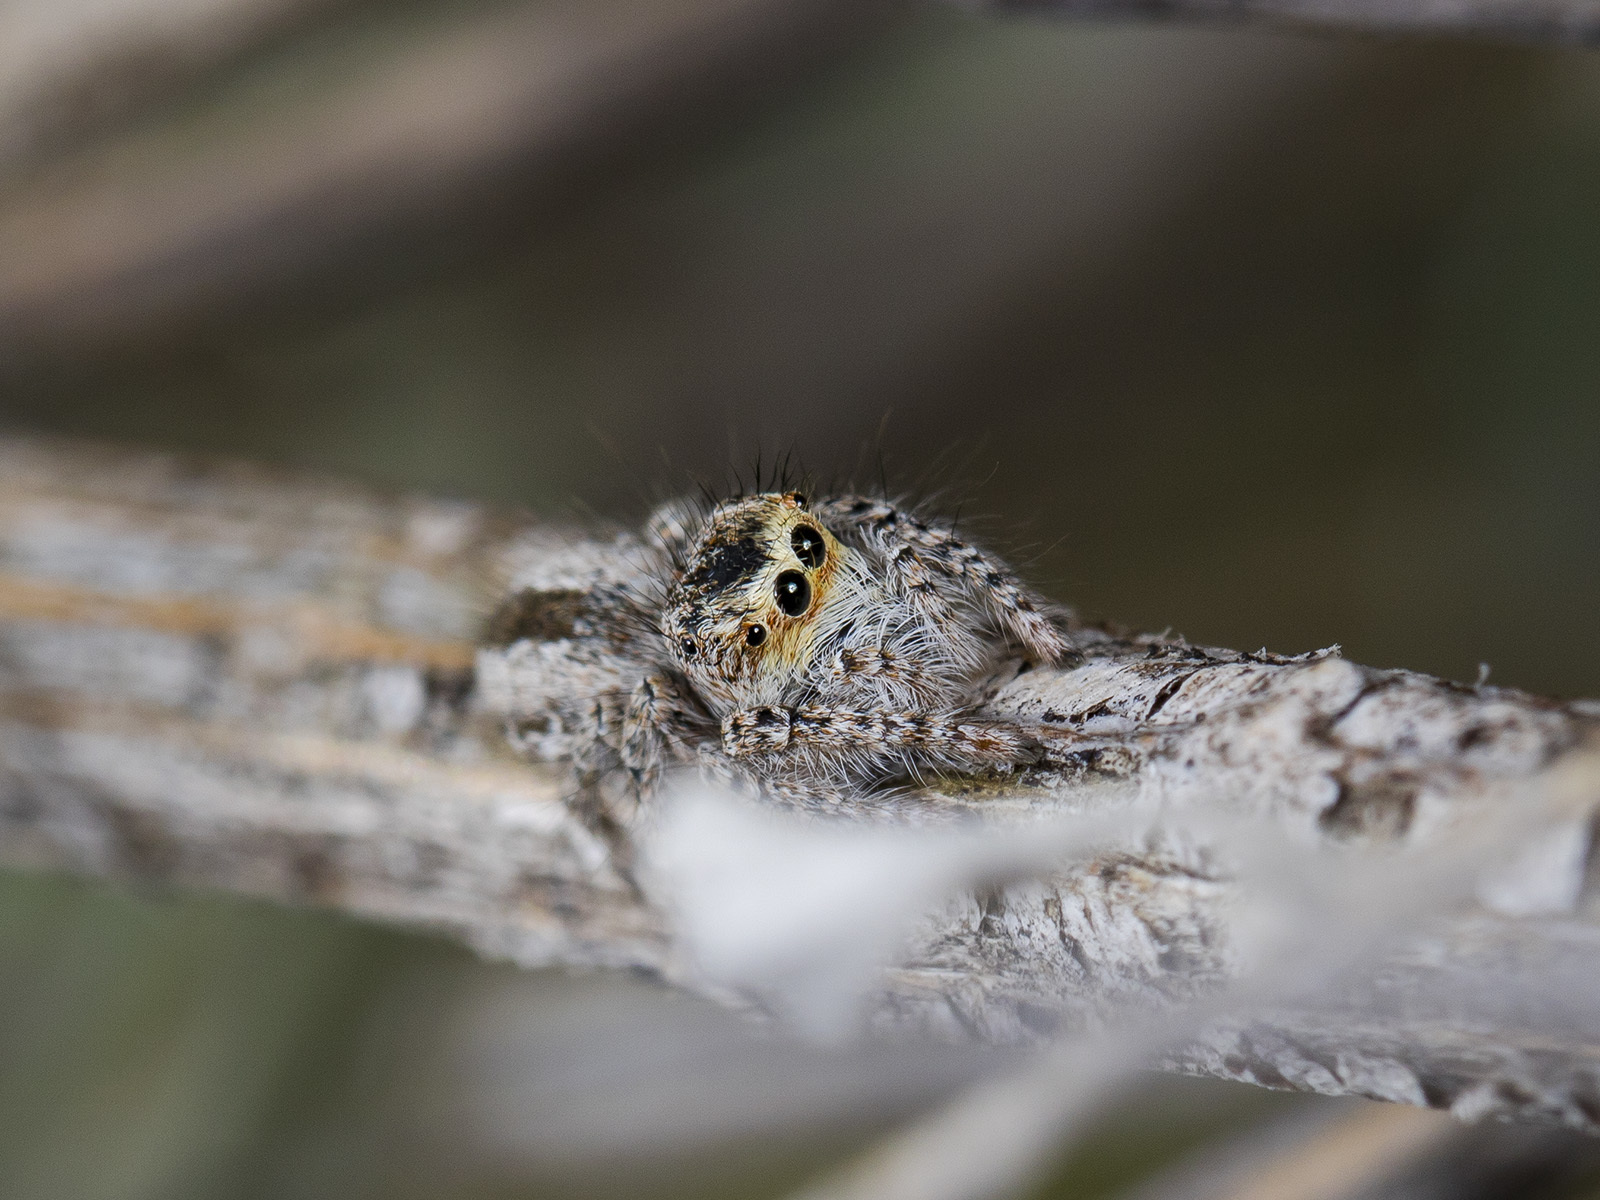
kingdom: Animalia
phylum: Arthropoda
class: Arachnida
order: Araneae
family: Salticidae
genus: Mogrus
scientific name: Mogrus larisae
